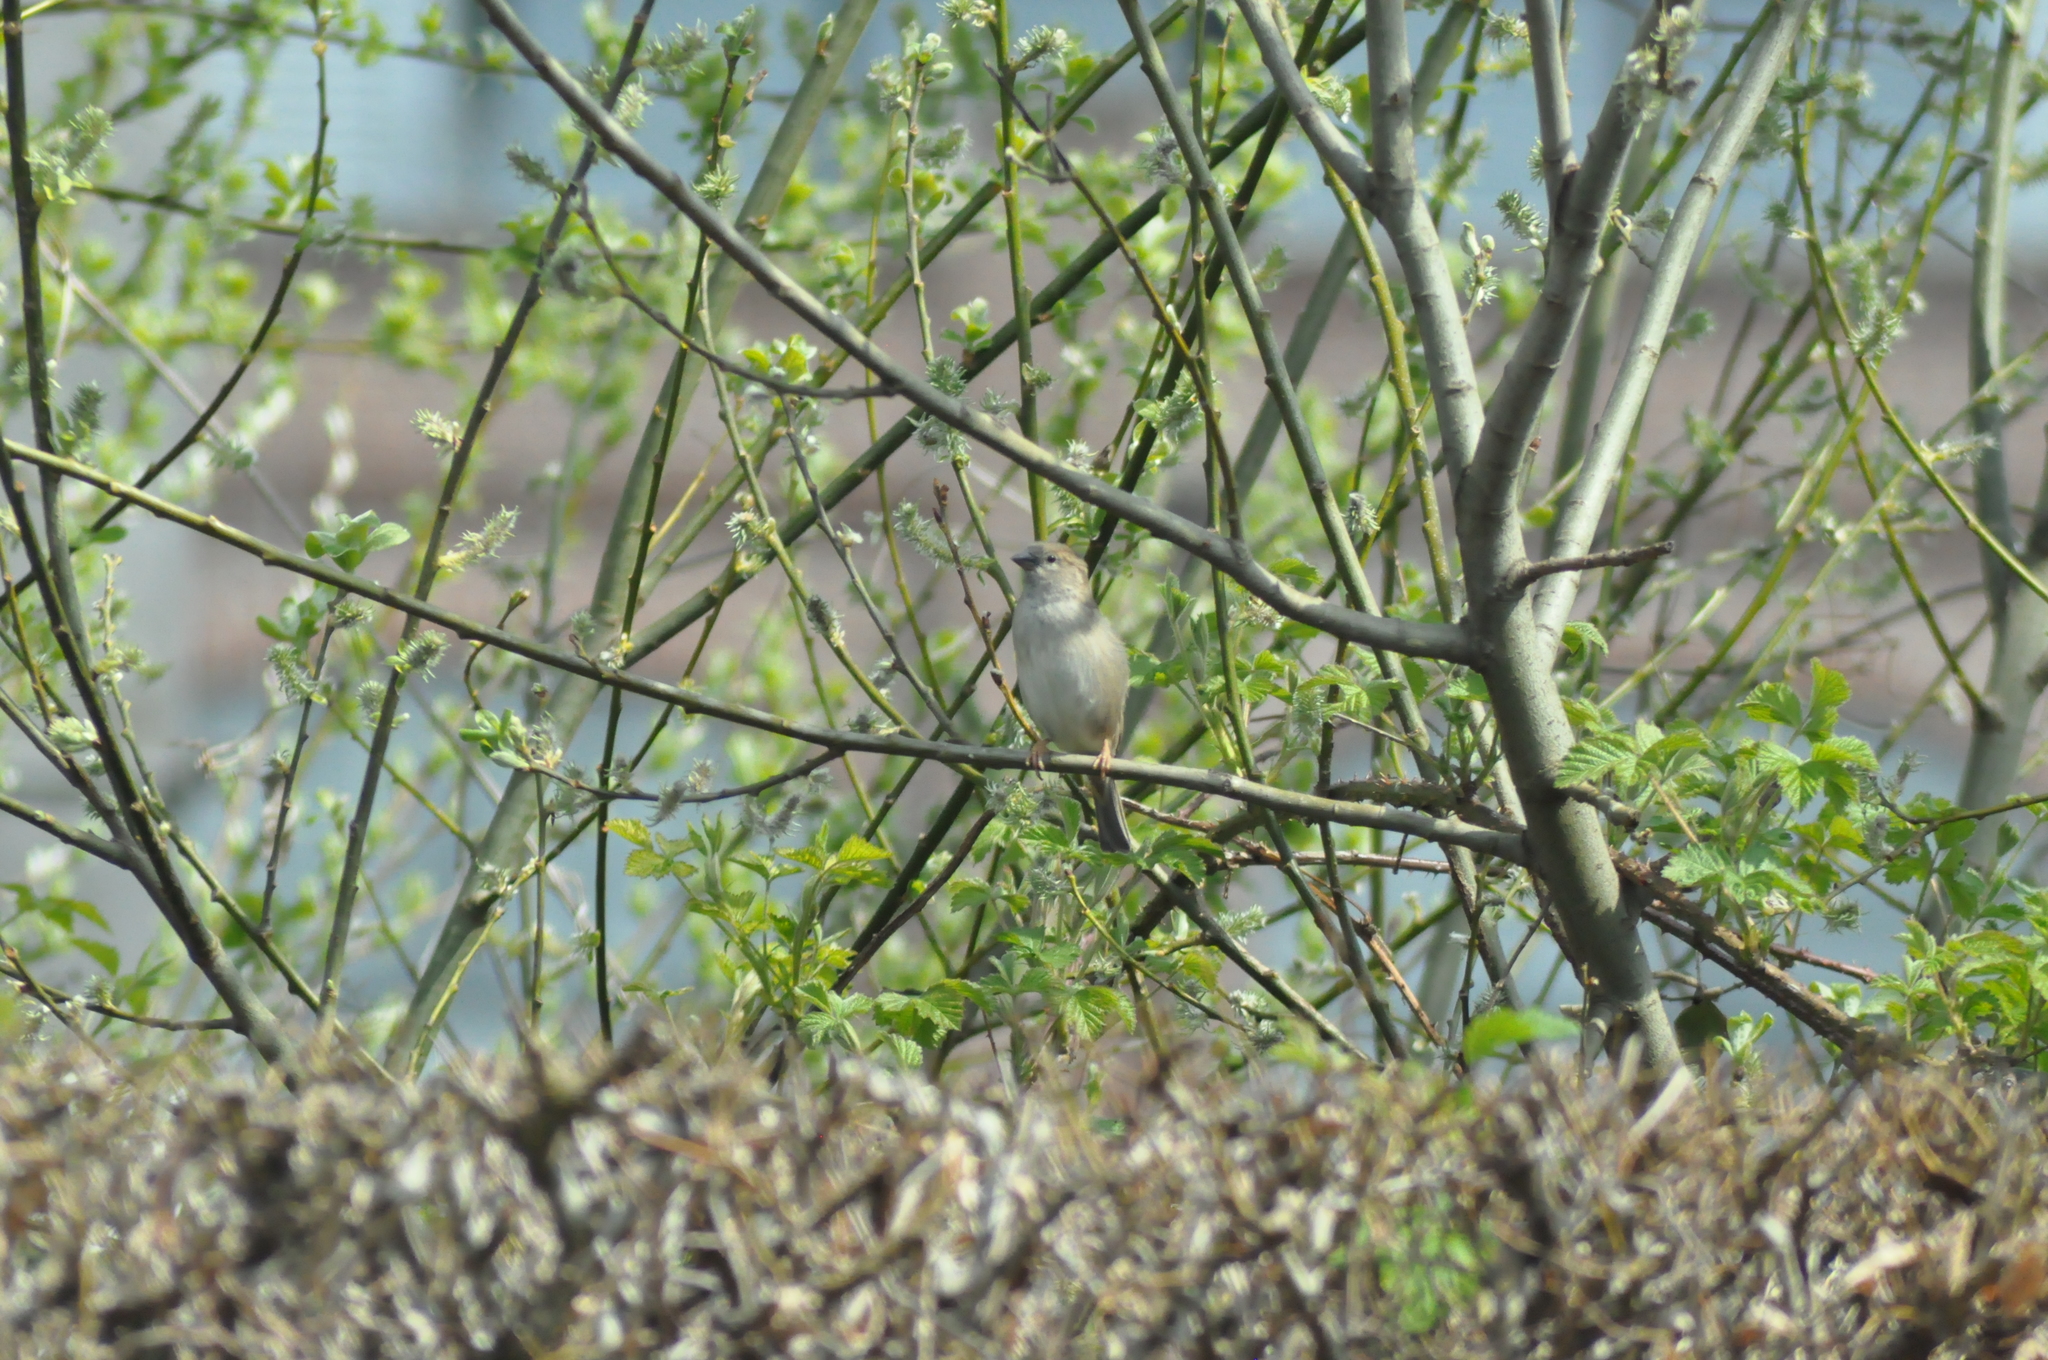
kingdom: Animalia
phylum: Chordata
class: Aves
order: Passeriformes
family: Passeridae
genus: Passer
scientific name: Passer domesticus
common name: House sparrow
